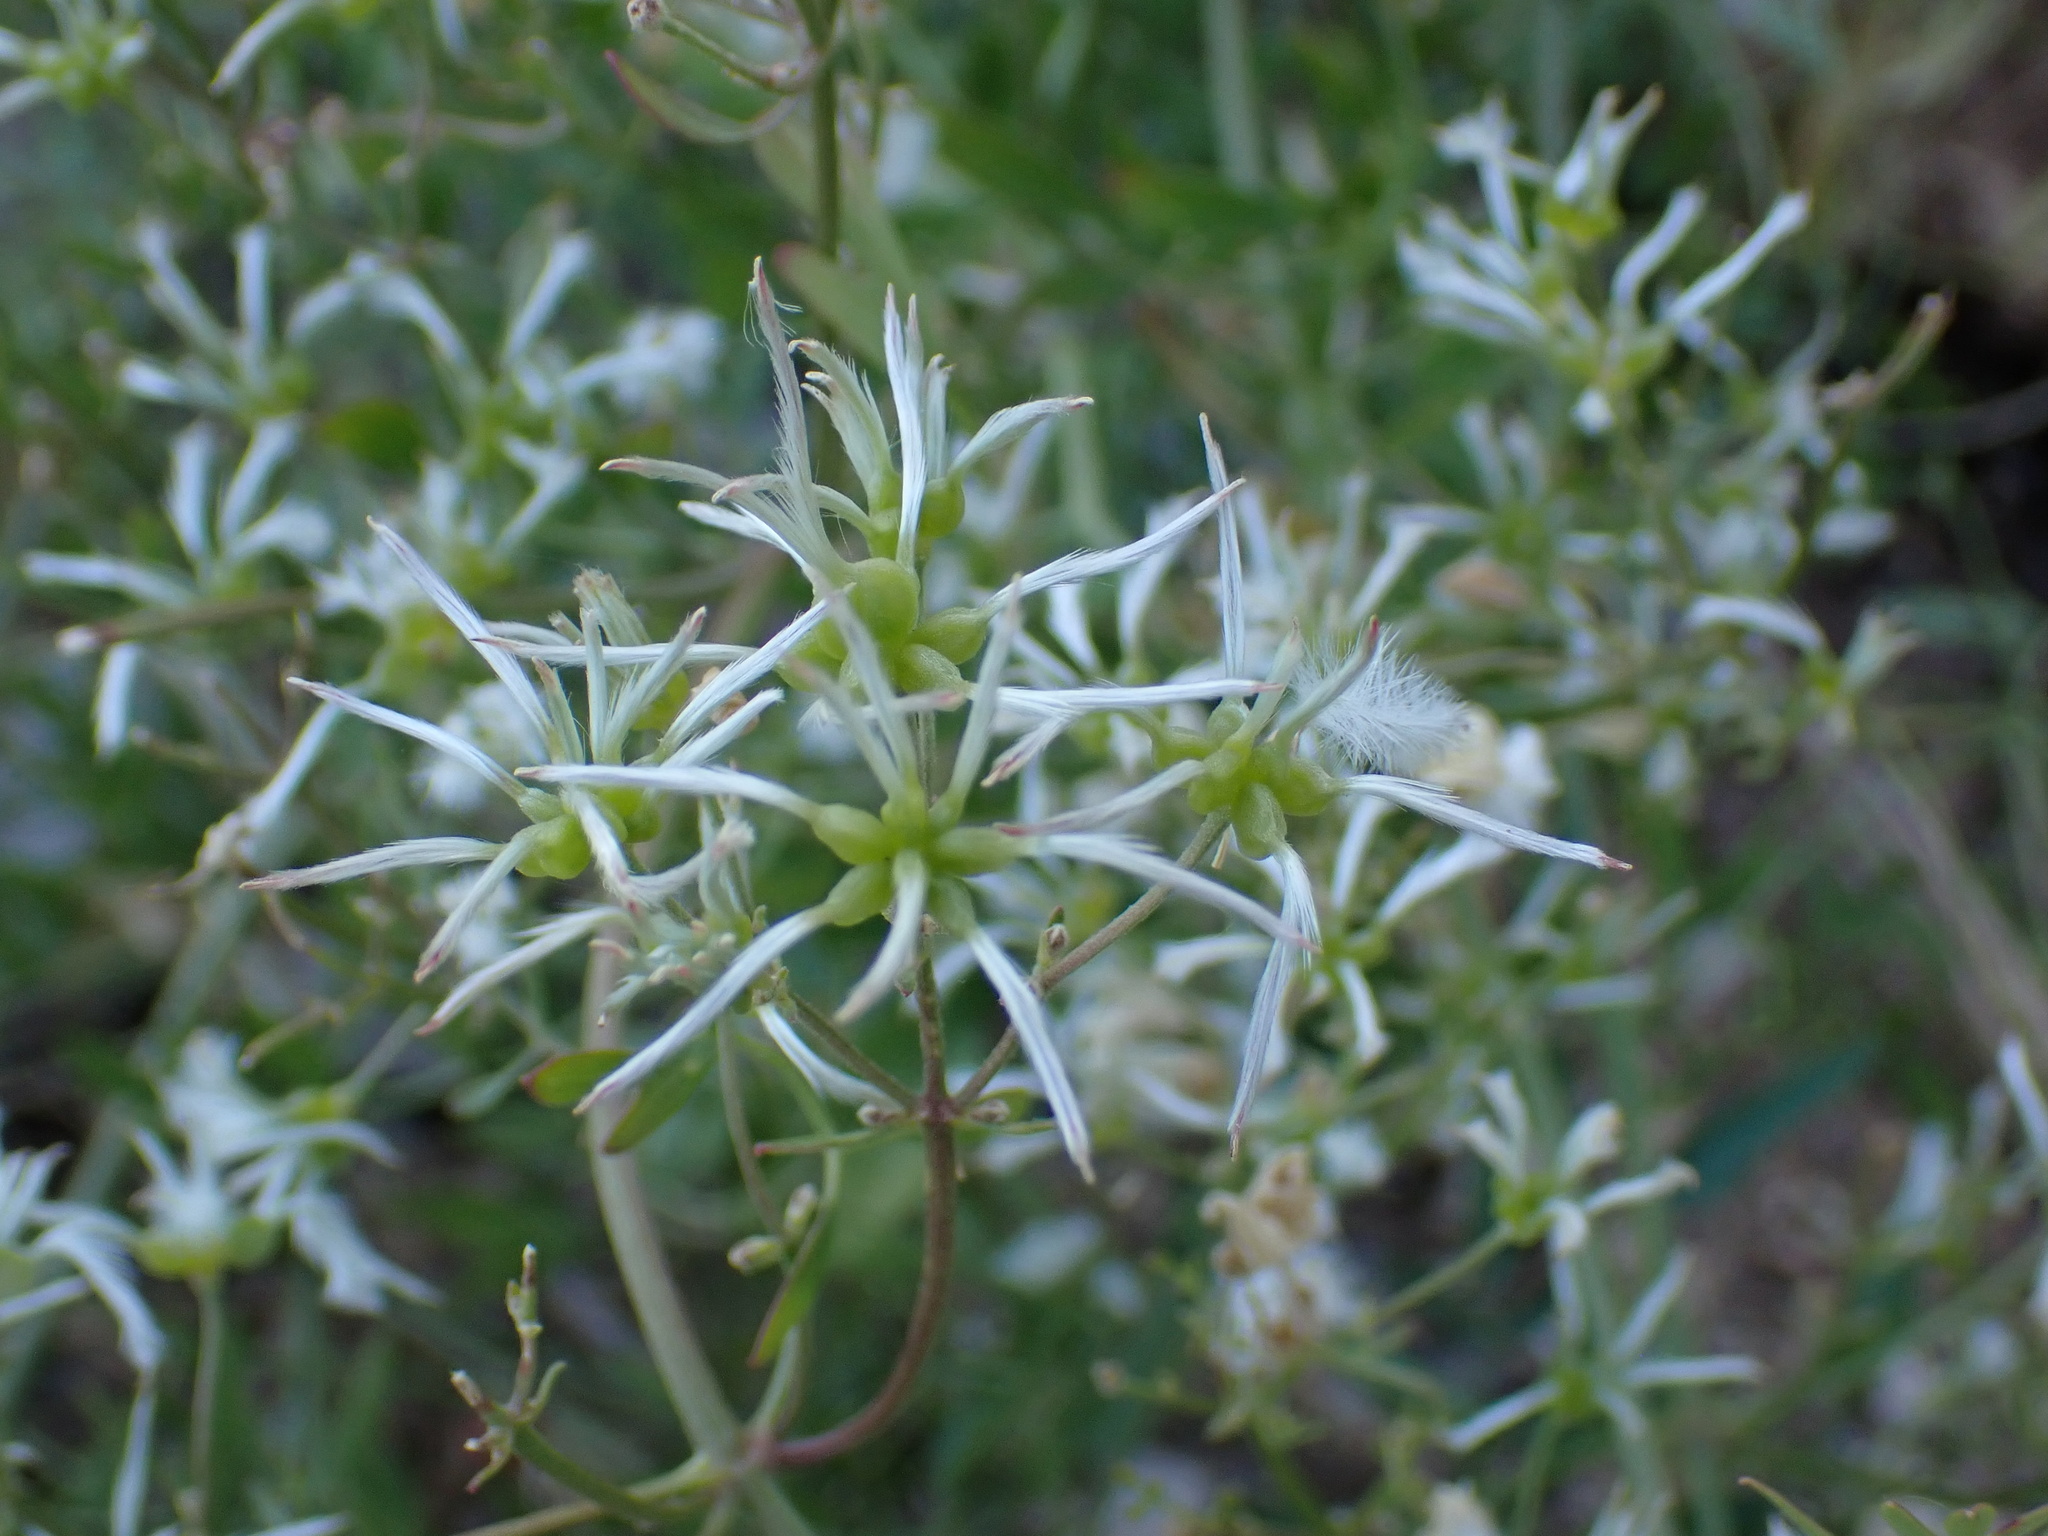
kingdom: Plantae
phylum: Tracheophyta
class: Magnoliopsida
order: Ranunculales
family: Ranunculaceae
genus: Clematis
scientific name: Clematis flammula
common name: Virgin's-bower
